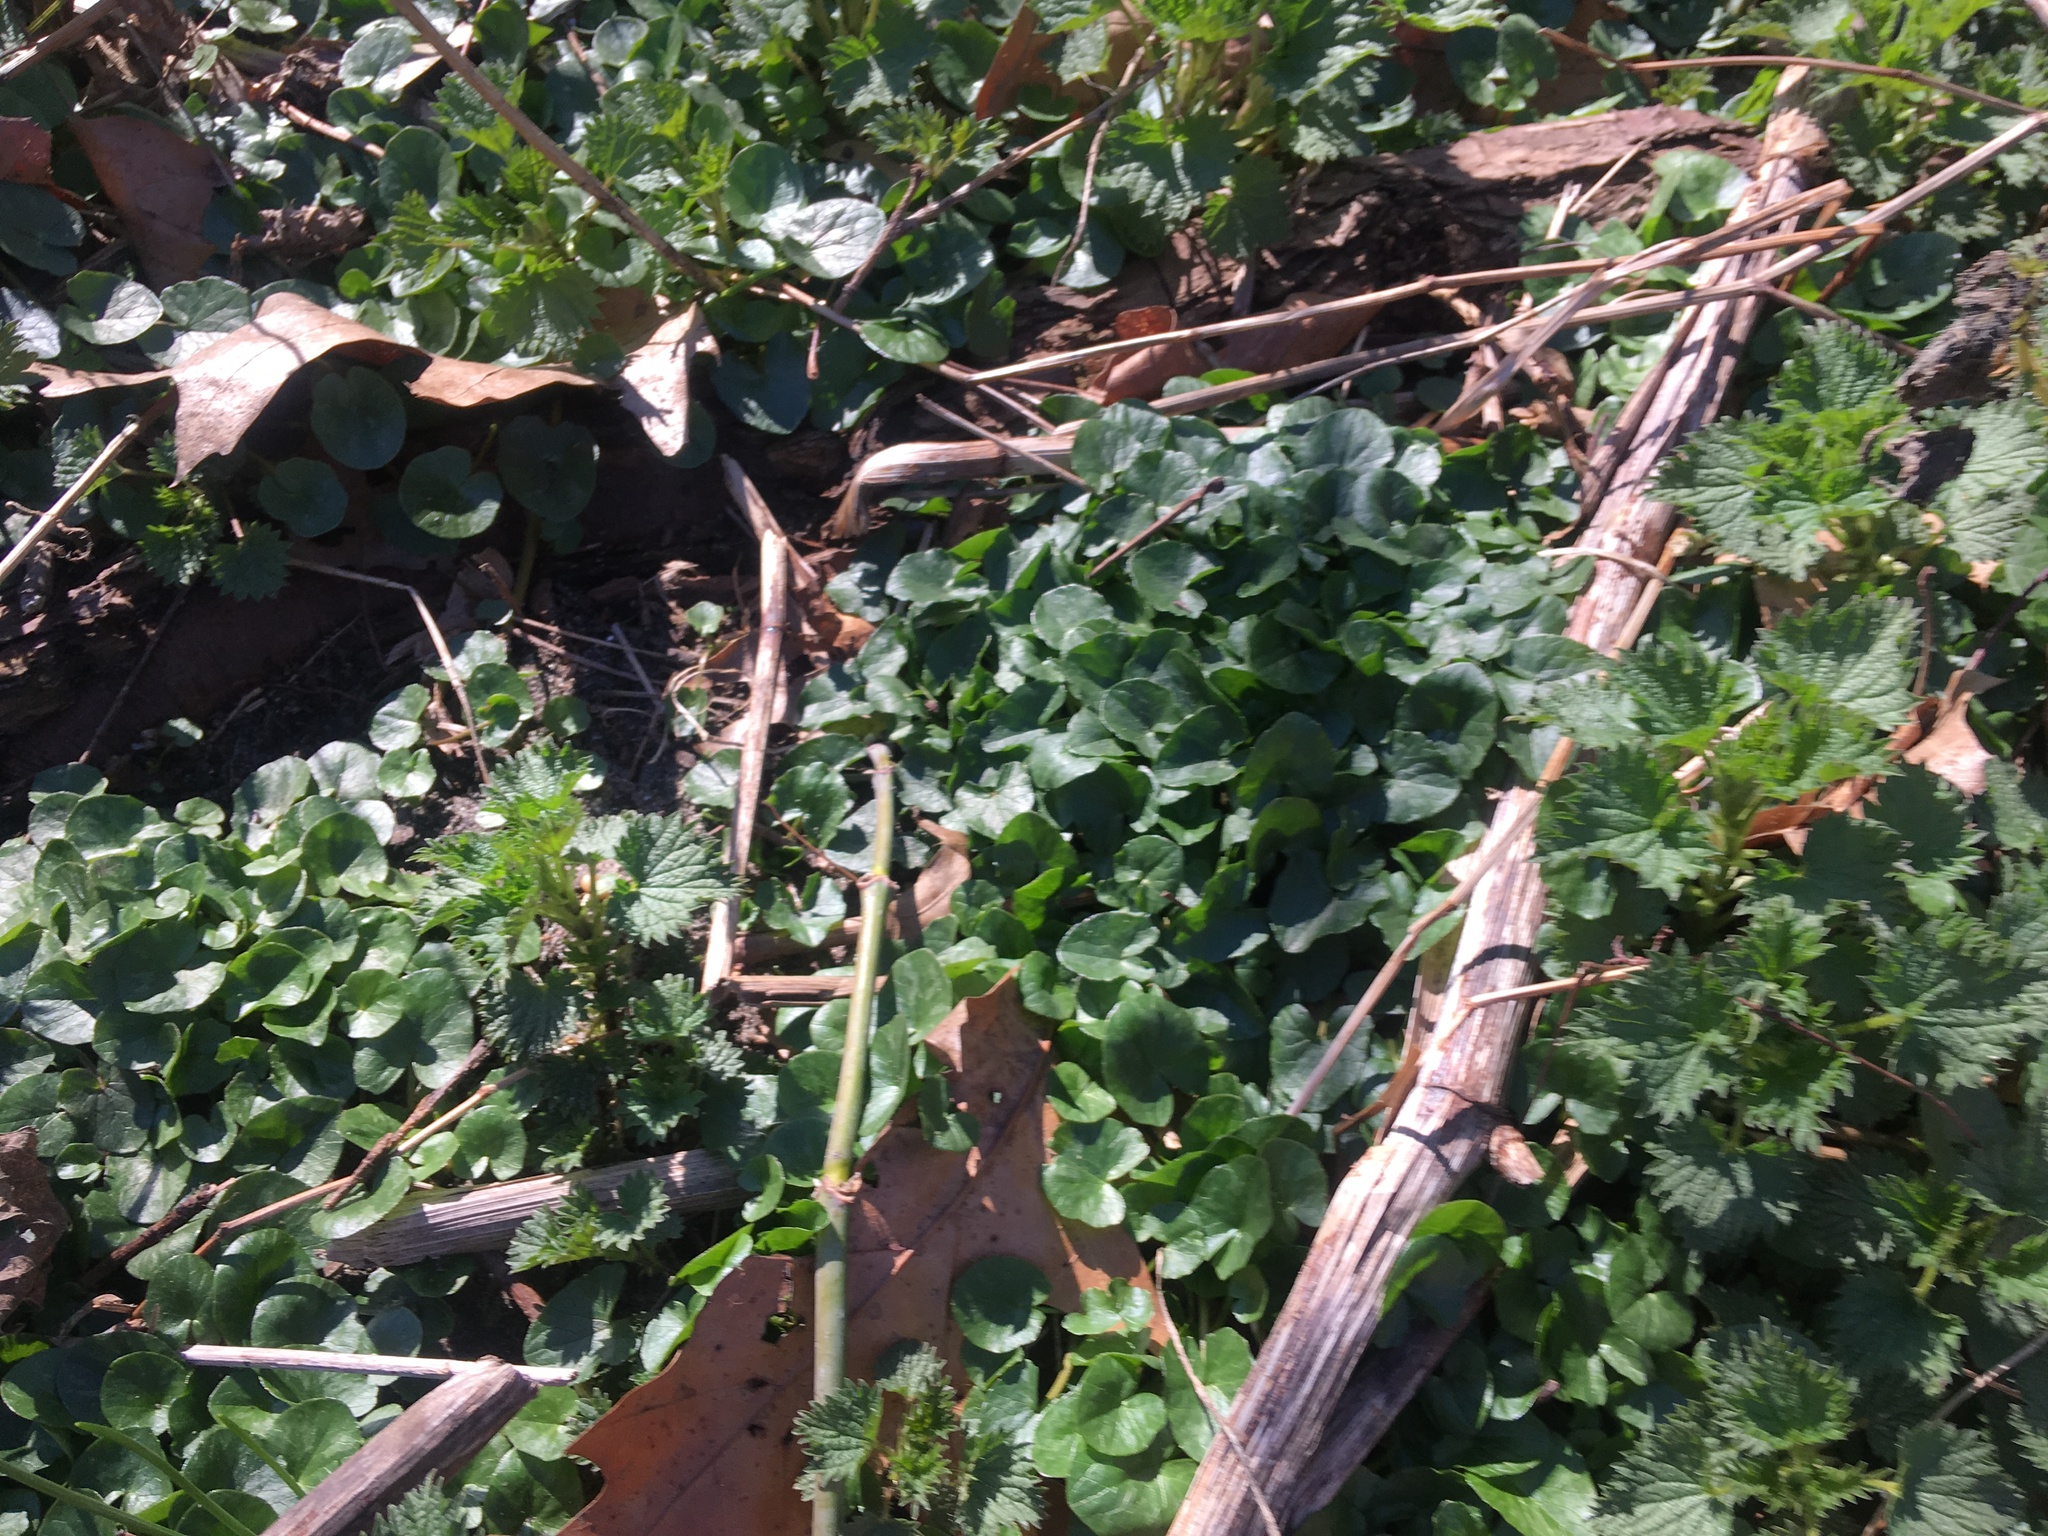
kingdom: Plantae
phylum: Tracheophyta
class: Magnoliopsida
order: Ranunculales
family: Ranunculaceae
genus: Ficaria
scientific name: Ficaria verna
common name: Lesser celandine
